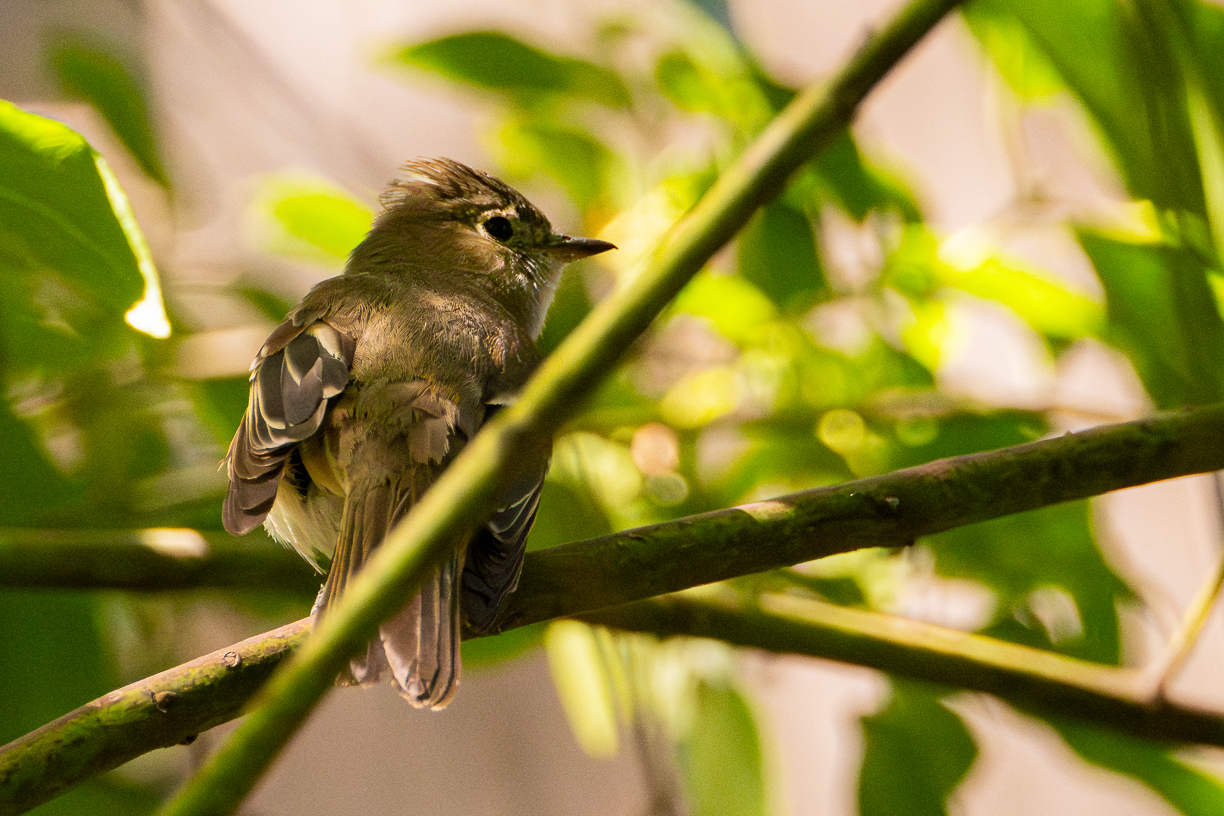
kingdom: Animalia
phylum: Chordata
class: Aves
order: Passeriformes
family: Tyrannidae
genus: Elaenia
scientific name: Elaenia albiceps
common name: White-crested elaenia
